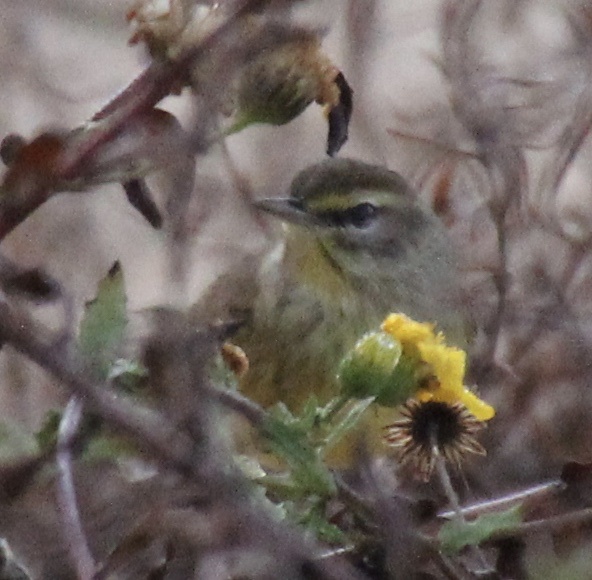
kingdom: Animalia
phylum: Chordata
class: Aves
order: Passeriformes
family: Parulidae
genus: Setophaga
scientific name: Setophaga palmarum
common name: Palm warbler
